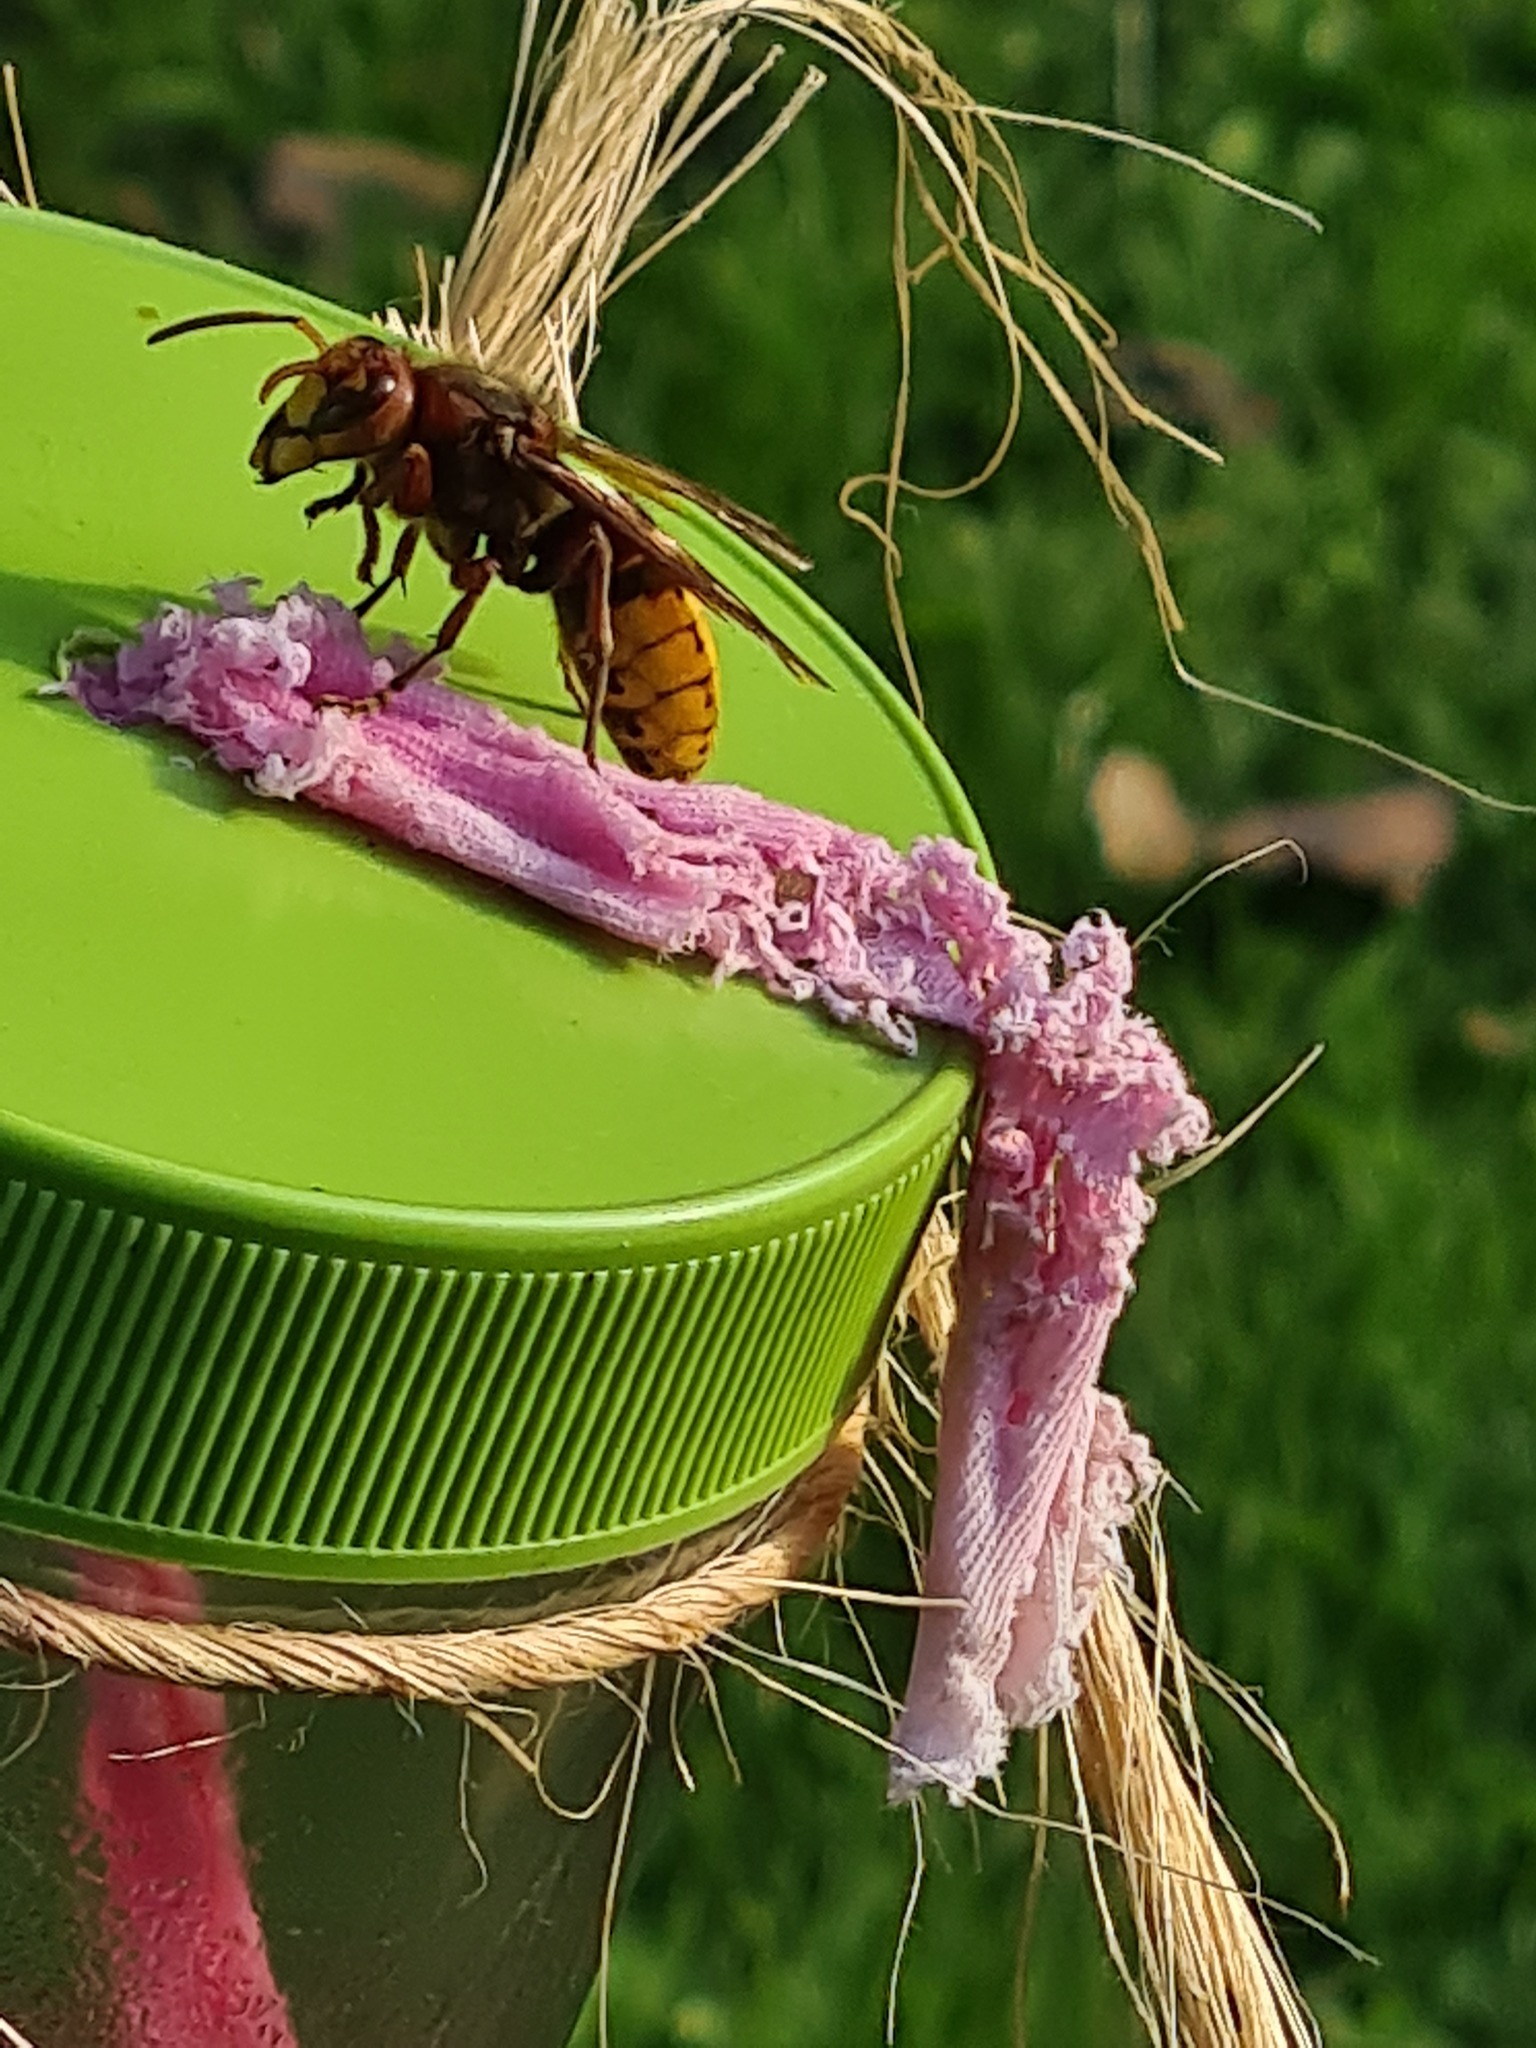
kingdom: Animalia
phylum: Arthropoda
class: Insecta
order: Hymenoptera
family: Vespidae
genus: Vespa
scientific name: Vespa crabro
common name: Hornet
